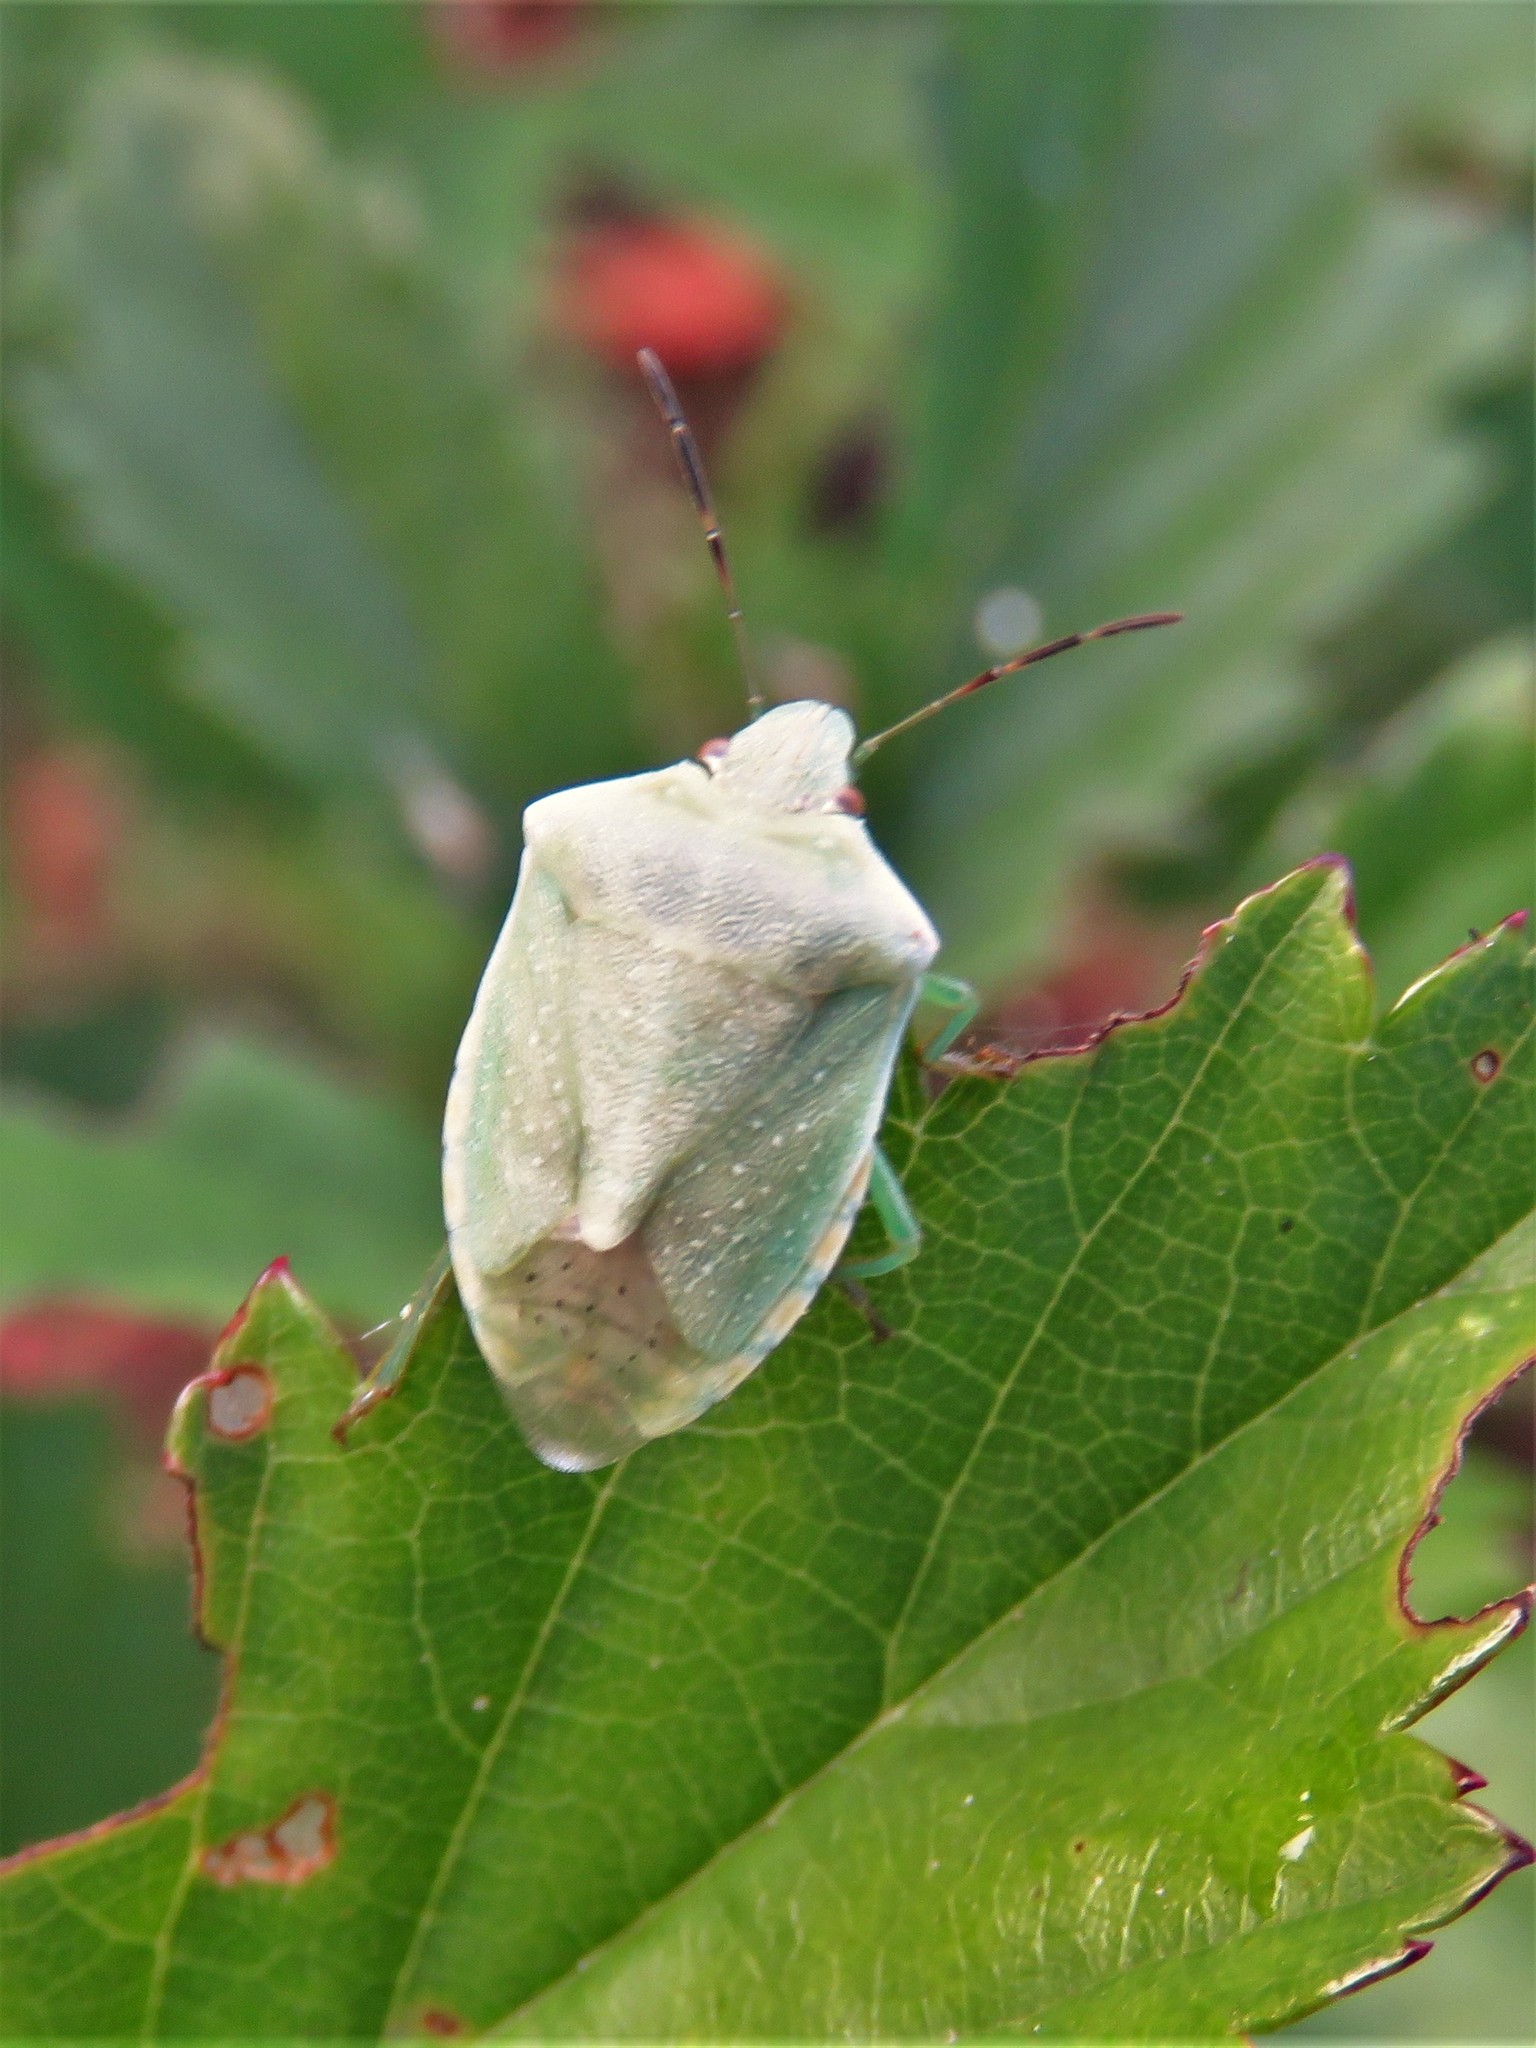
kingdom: Animalia
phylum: Arthropoda
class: Insecta
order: Hemiptera
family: Pentatomidae
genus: Thyanta
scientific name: Thyanta custator
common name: Stink bug
